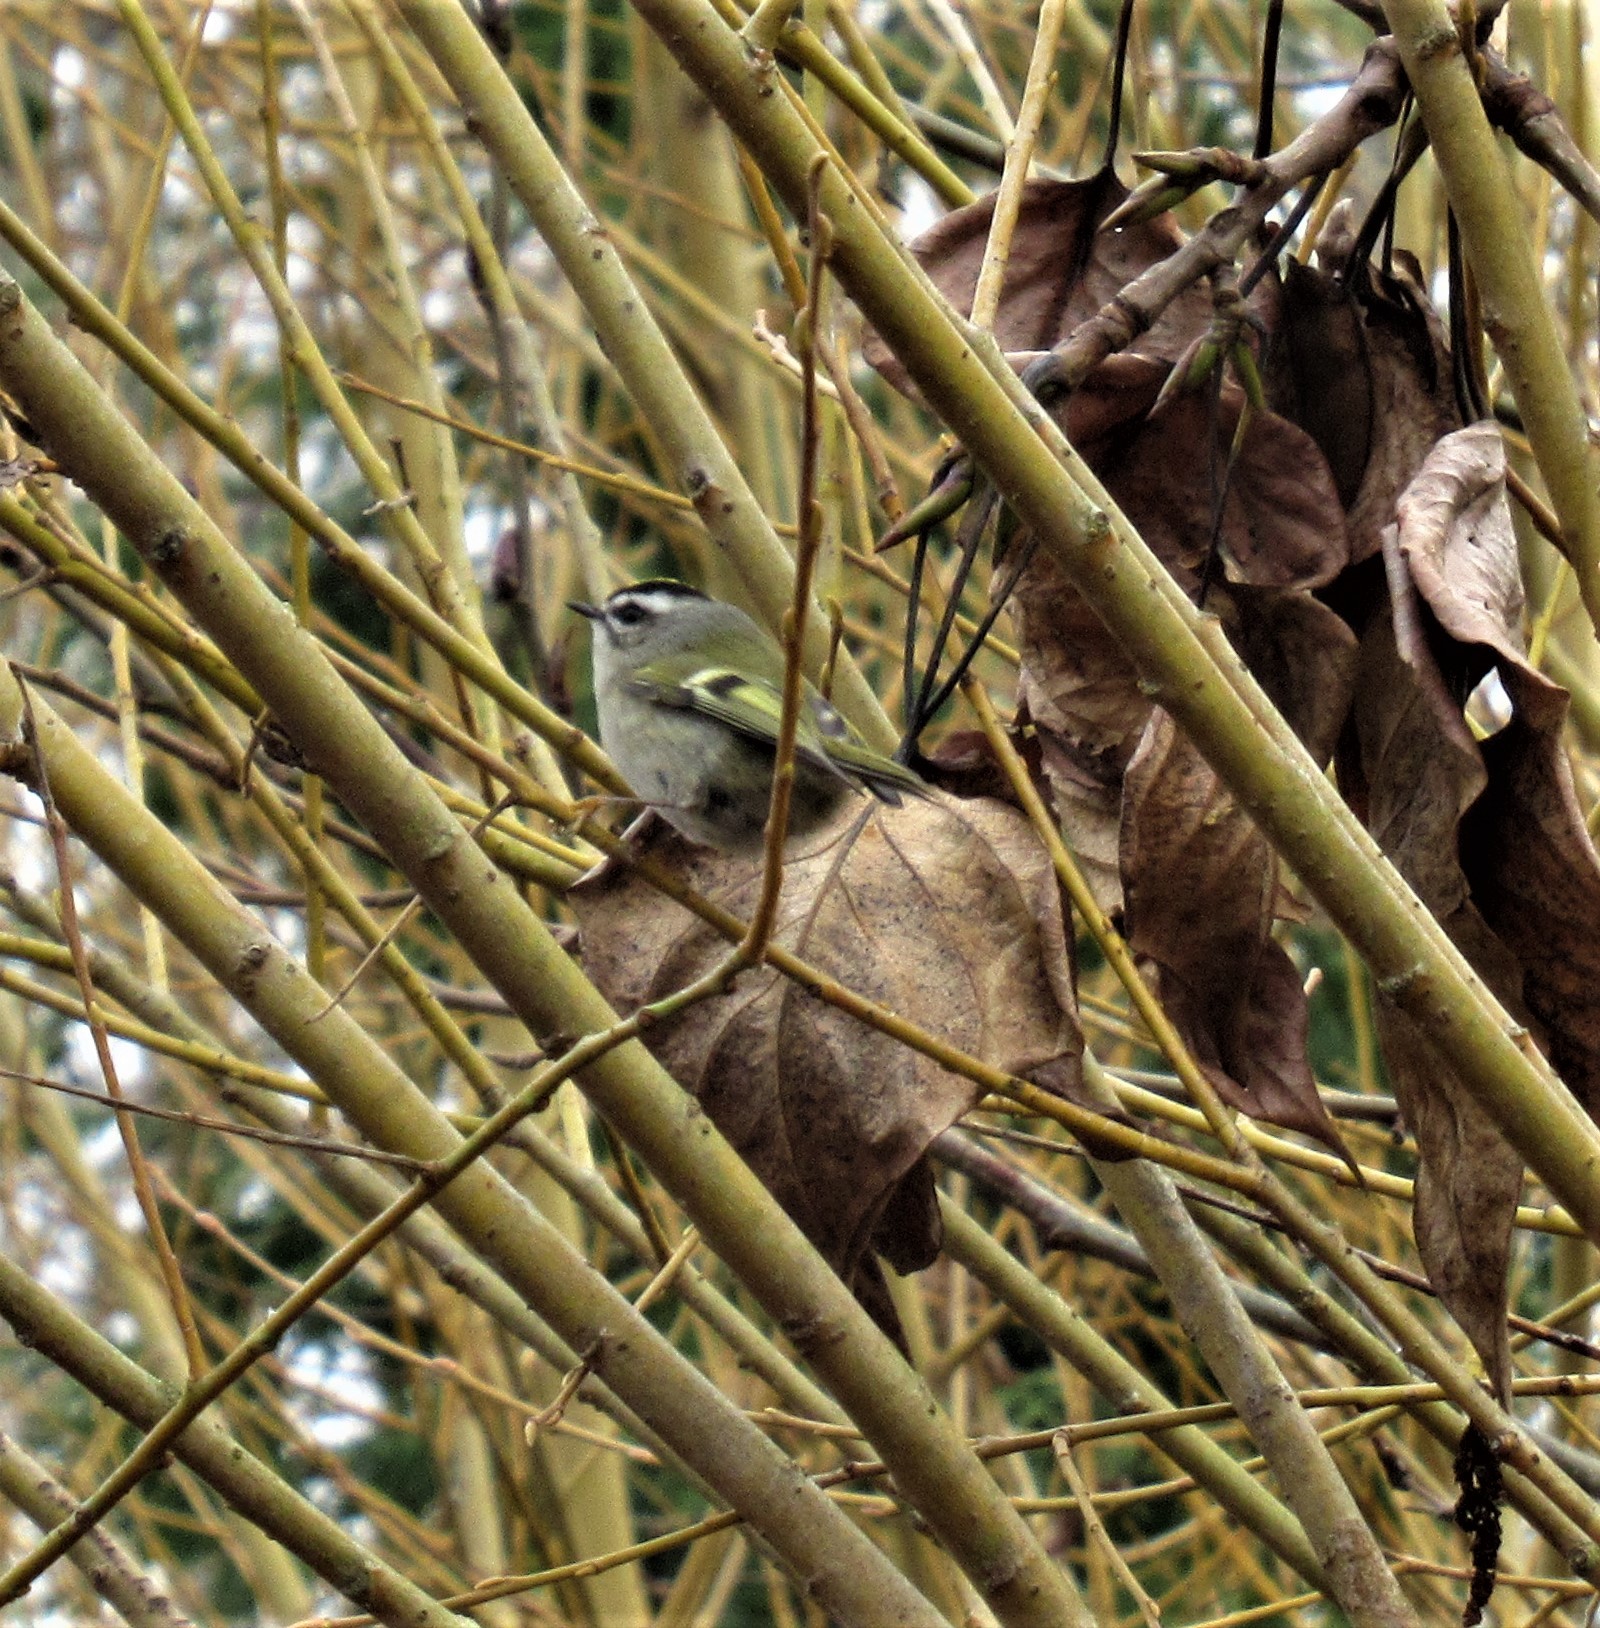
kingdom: Animalia
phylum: Chordata
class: Aves
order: Passeriformes
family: Regulidae
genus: Regulus
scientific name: Regulus satrapa
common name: Golden-crowned kinglet
